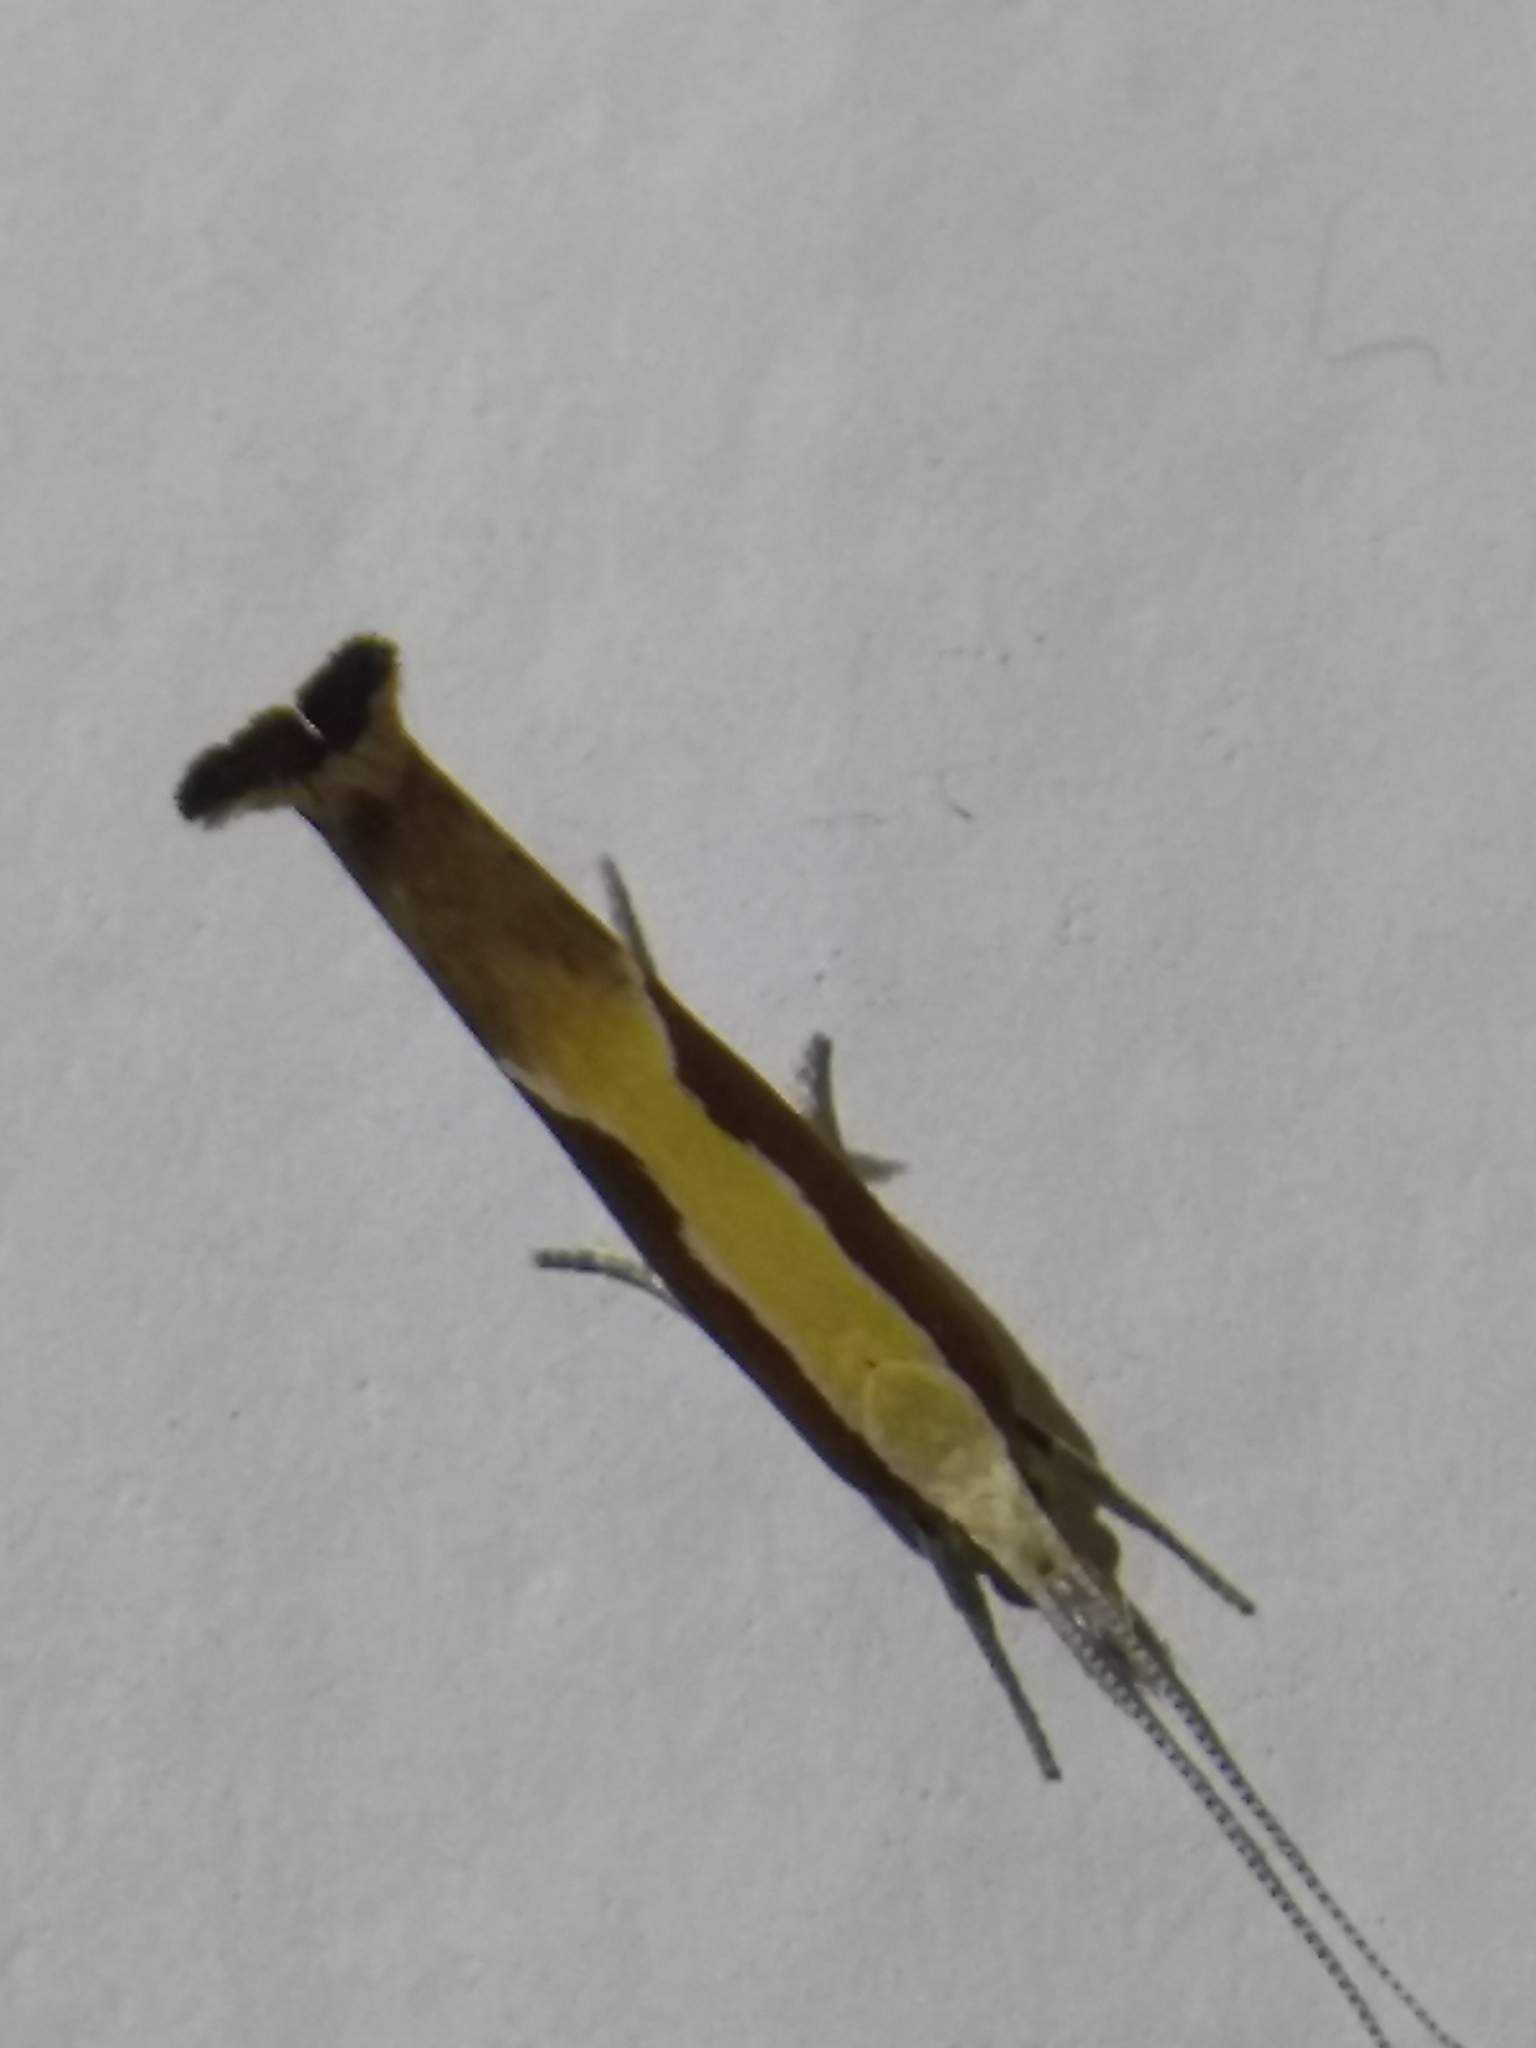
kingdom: Animalia
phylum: Arthropoda
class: Insecta
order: Lepidoptera
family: Ypsolophidae
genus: Ypsolopha
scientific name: Ypsolopha dentella
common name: Honeysuckle moth
